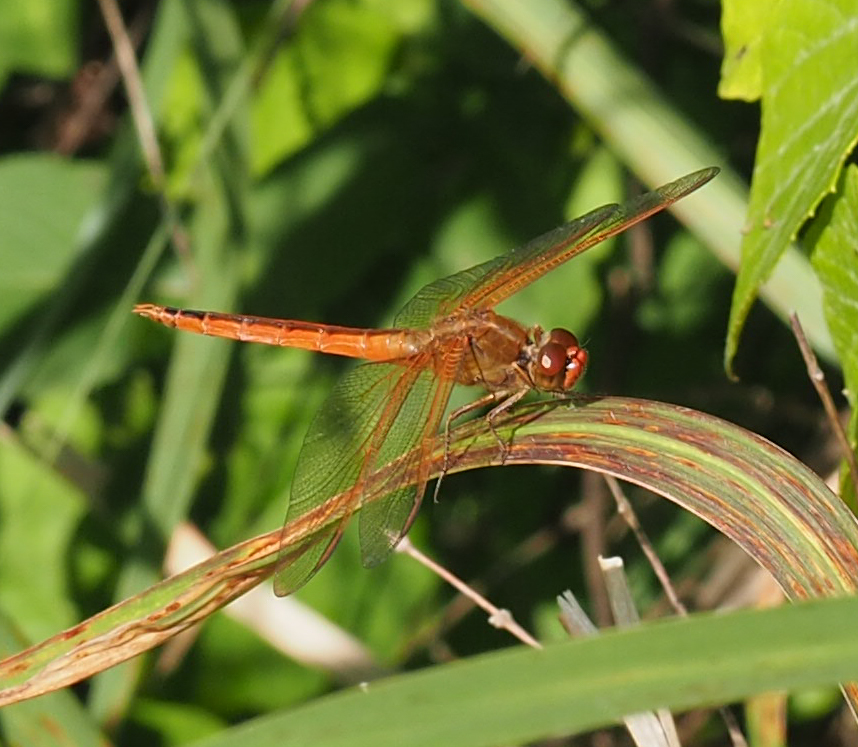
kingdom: Animalia
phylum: Arthropoda
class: Insecta
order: Odonata
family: Libellulidae
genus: Libellula
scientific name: Libellula needhami
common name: Needham's skimmer
